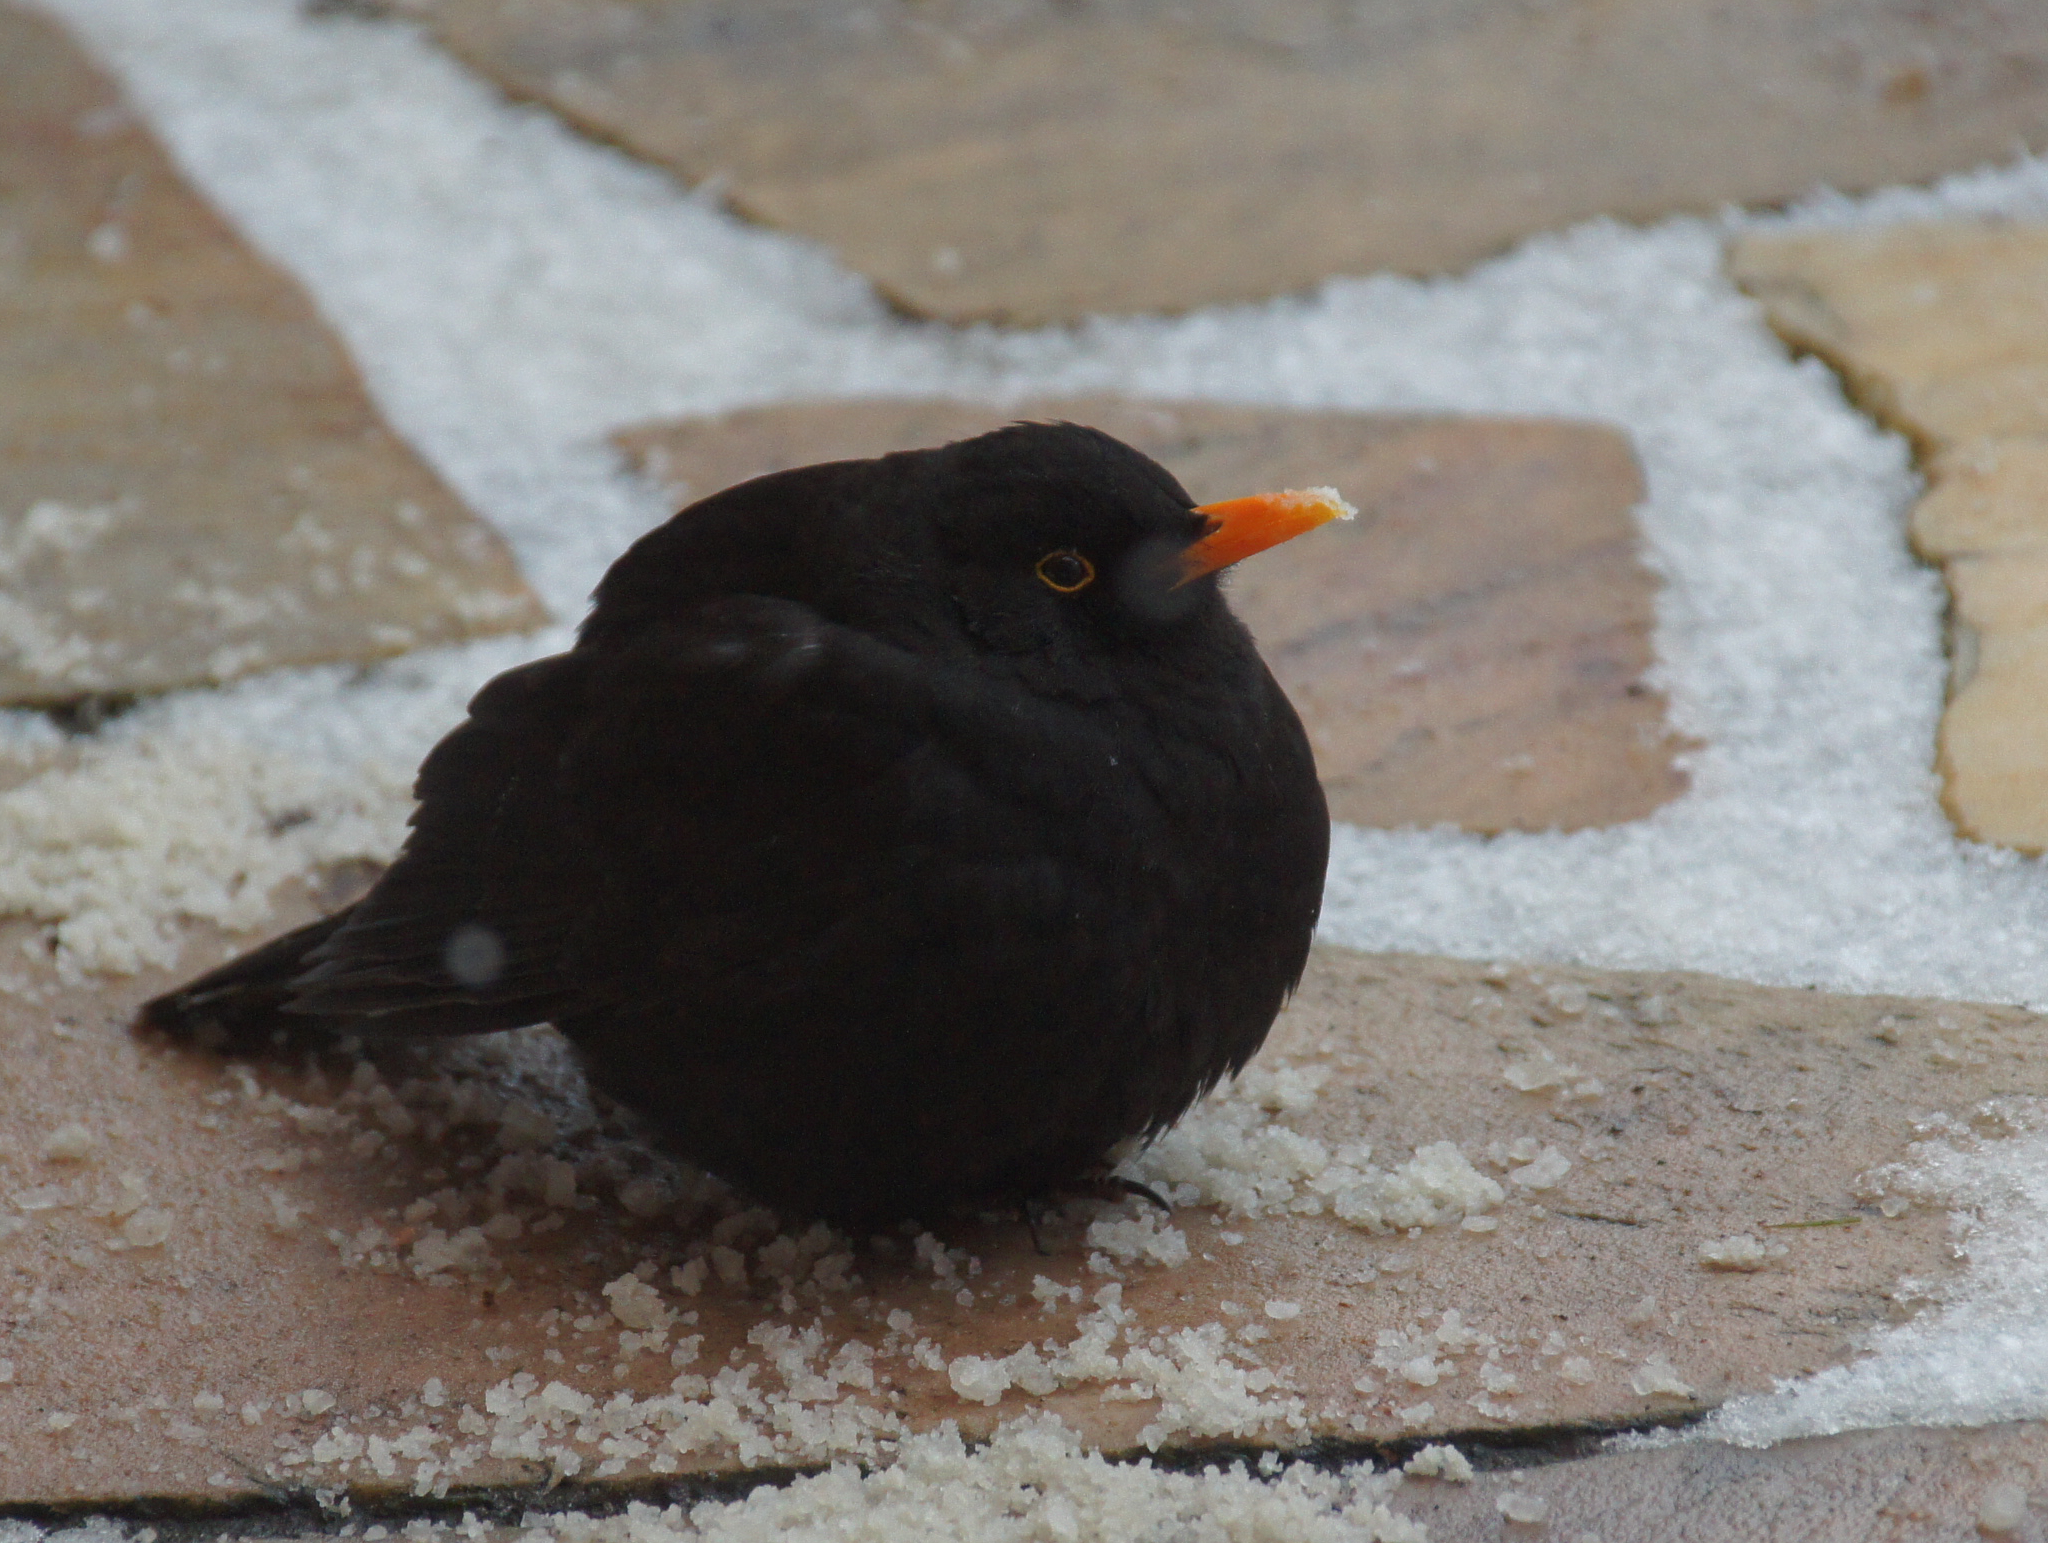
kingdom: Animalia
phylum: Chordata
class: Aves
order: Passeriformes
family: Turdidae
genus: Turdus
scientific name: Turdus merula
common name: Common blackbird
